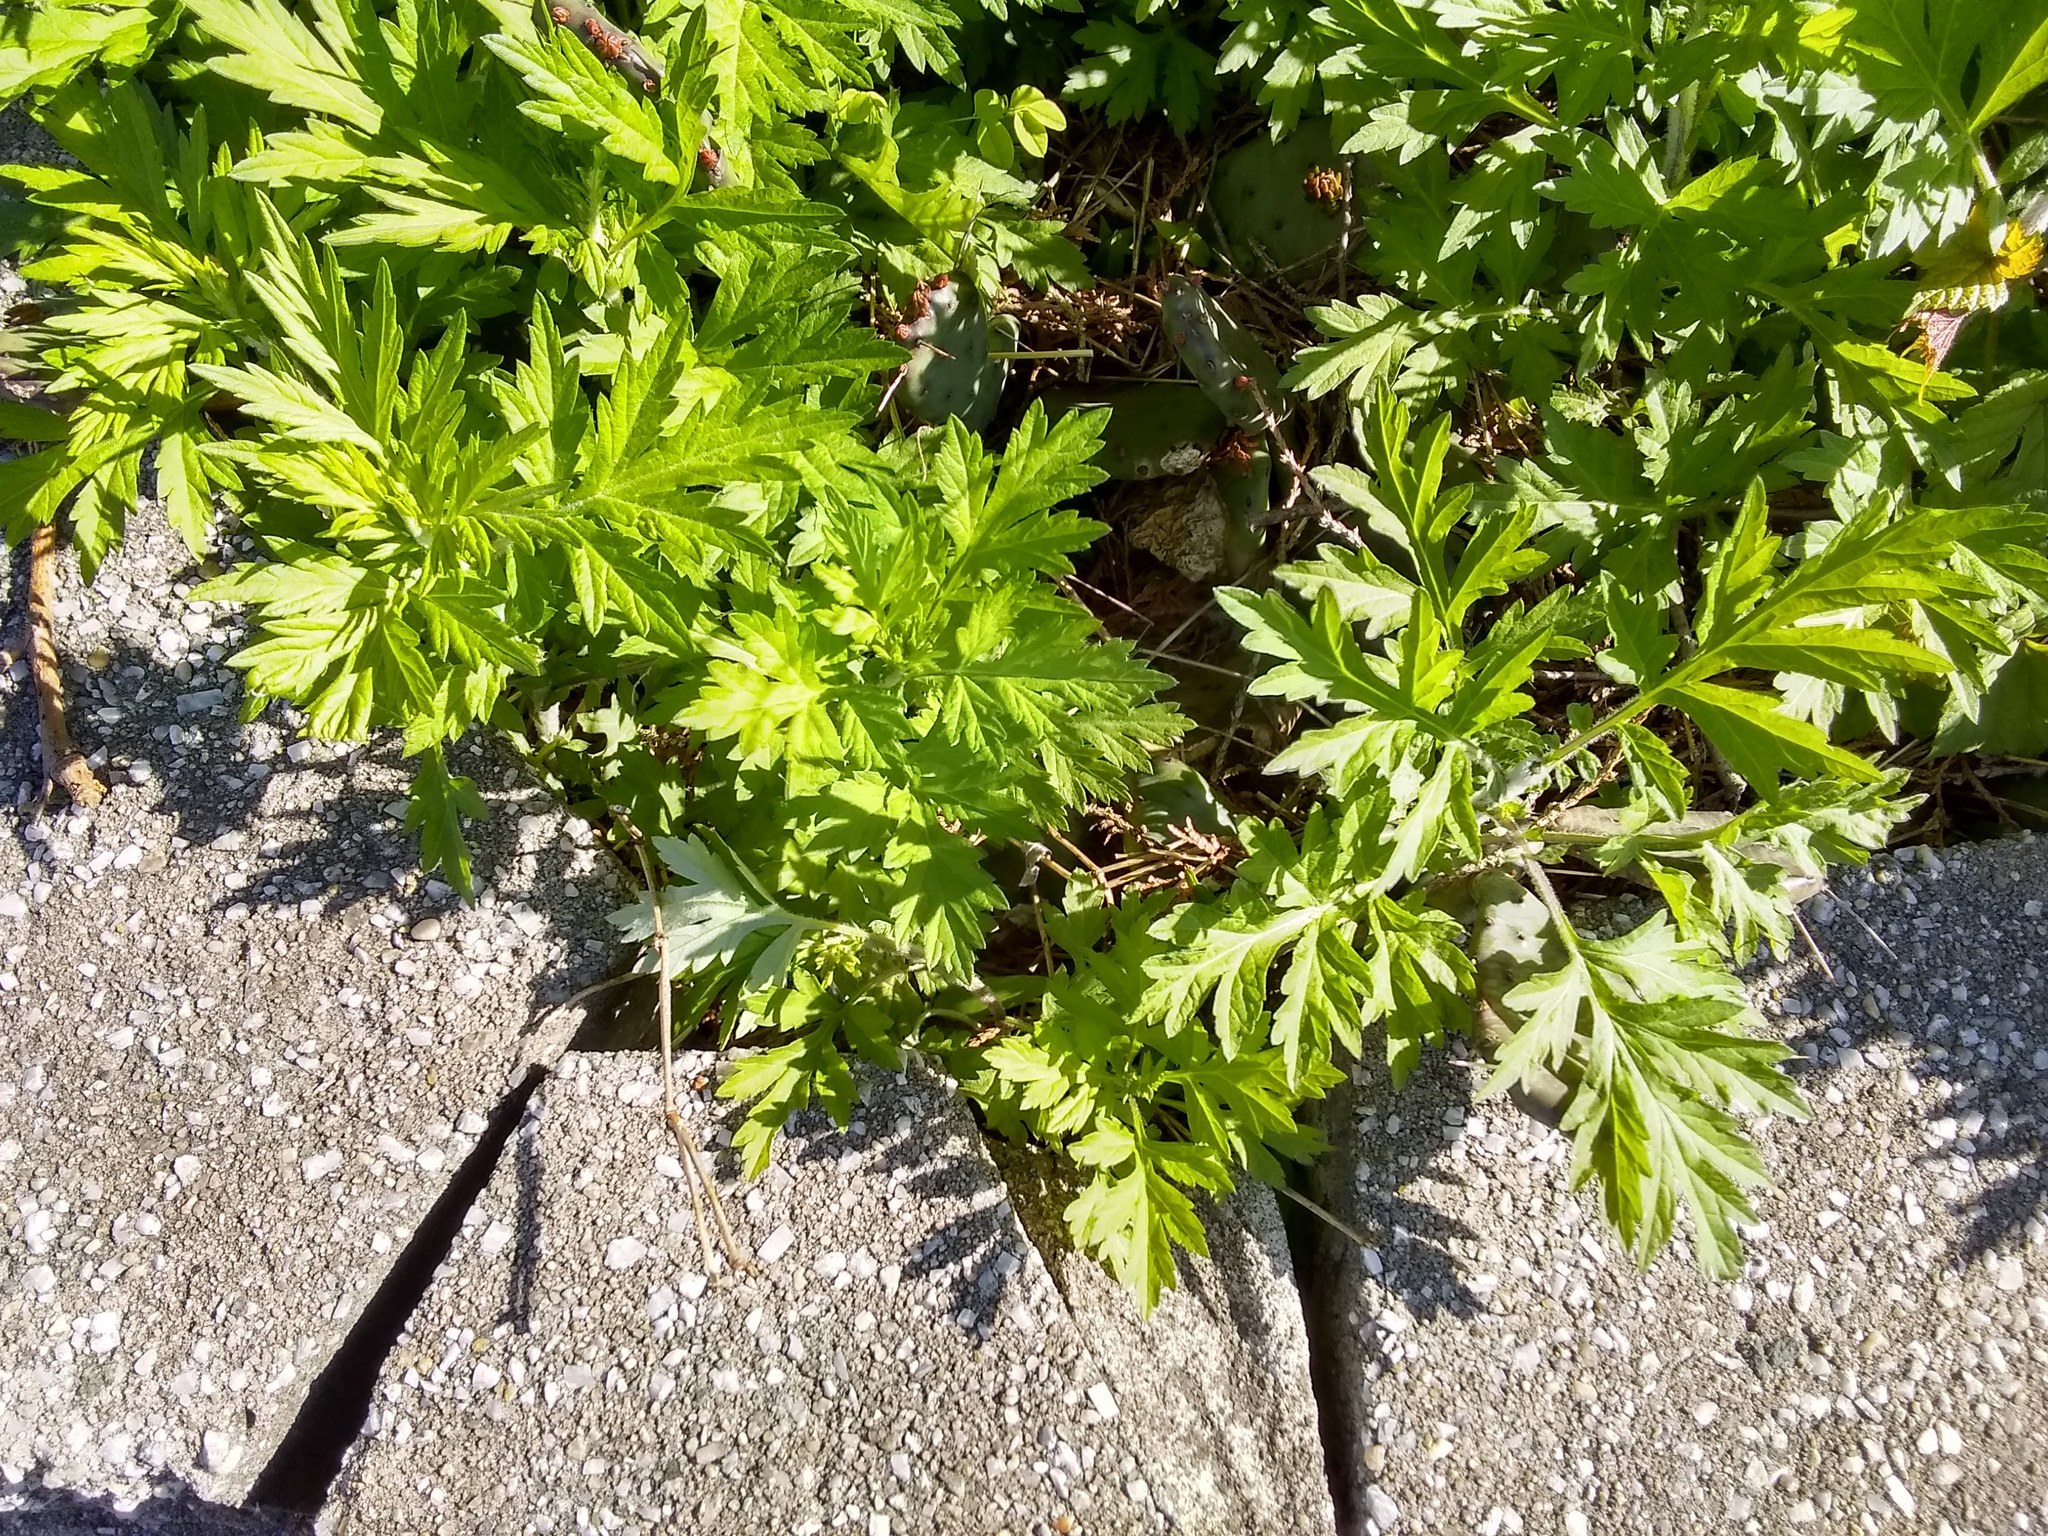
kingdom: Plantae
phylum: Tracheophyta
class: Magnoliopsida
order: Asterales
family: Asteraceae
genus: Artemisia
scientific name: Artemisia vulgaris
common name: Mugwort
